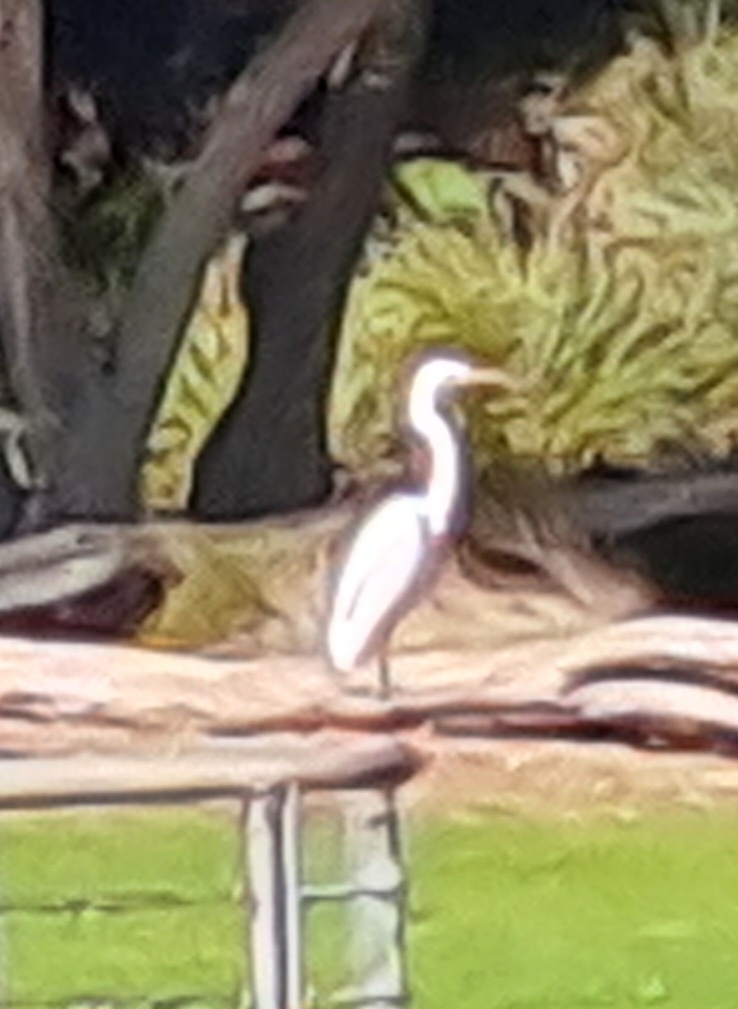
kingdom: Animalia
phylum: Chordata
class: Aves
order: Pelecaniformes
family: Ardeidae
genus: Ardea
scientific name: Ardea alba
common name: Great egret
